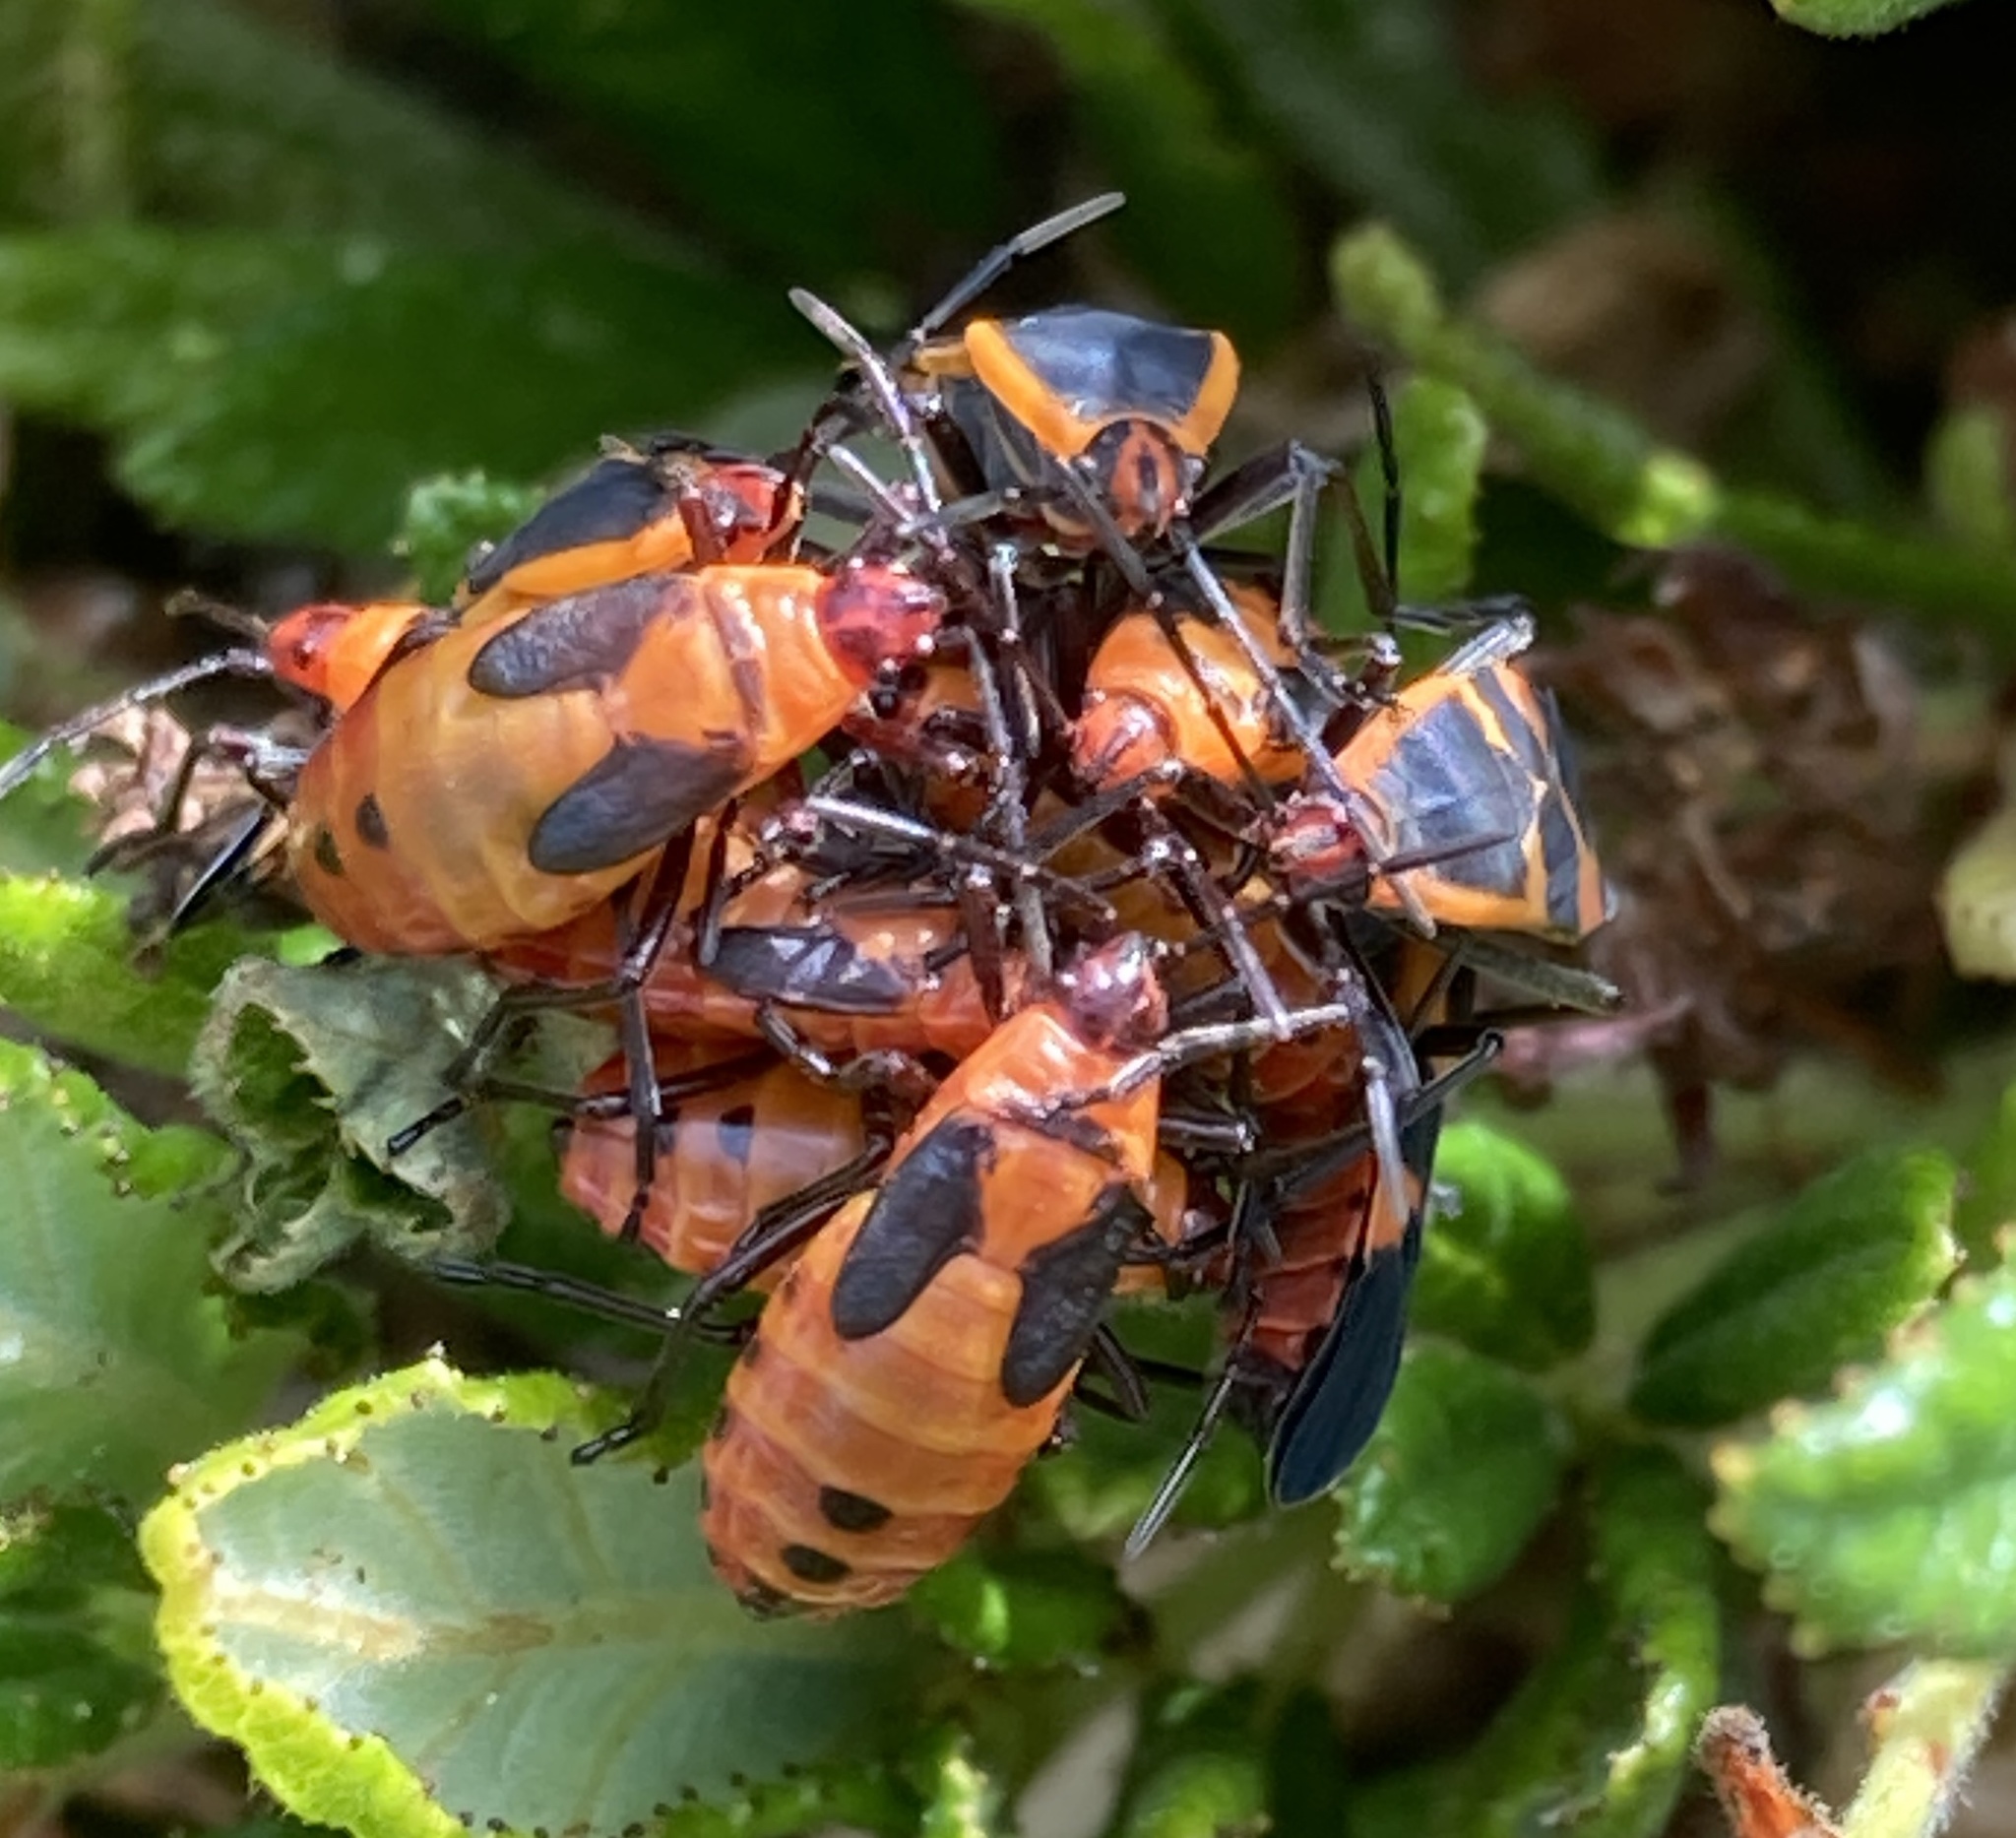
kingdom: Animalia
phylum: Arthropoda
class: Insecta
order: Hemiptera
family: Lygaeidae
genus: Oncopeltus
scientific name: Oncopeltus fasciatus
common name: Large milkweed bug
